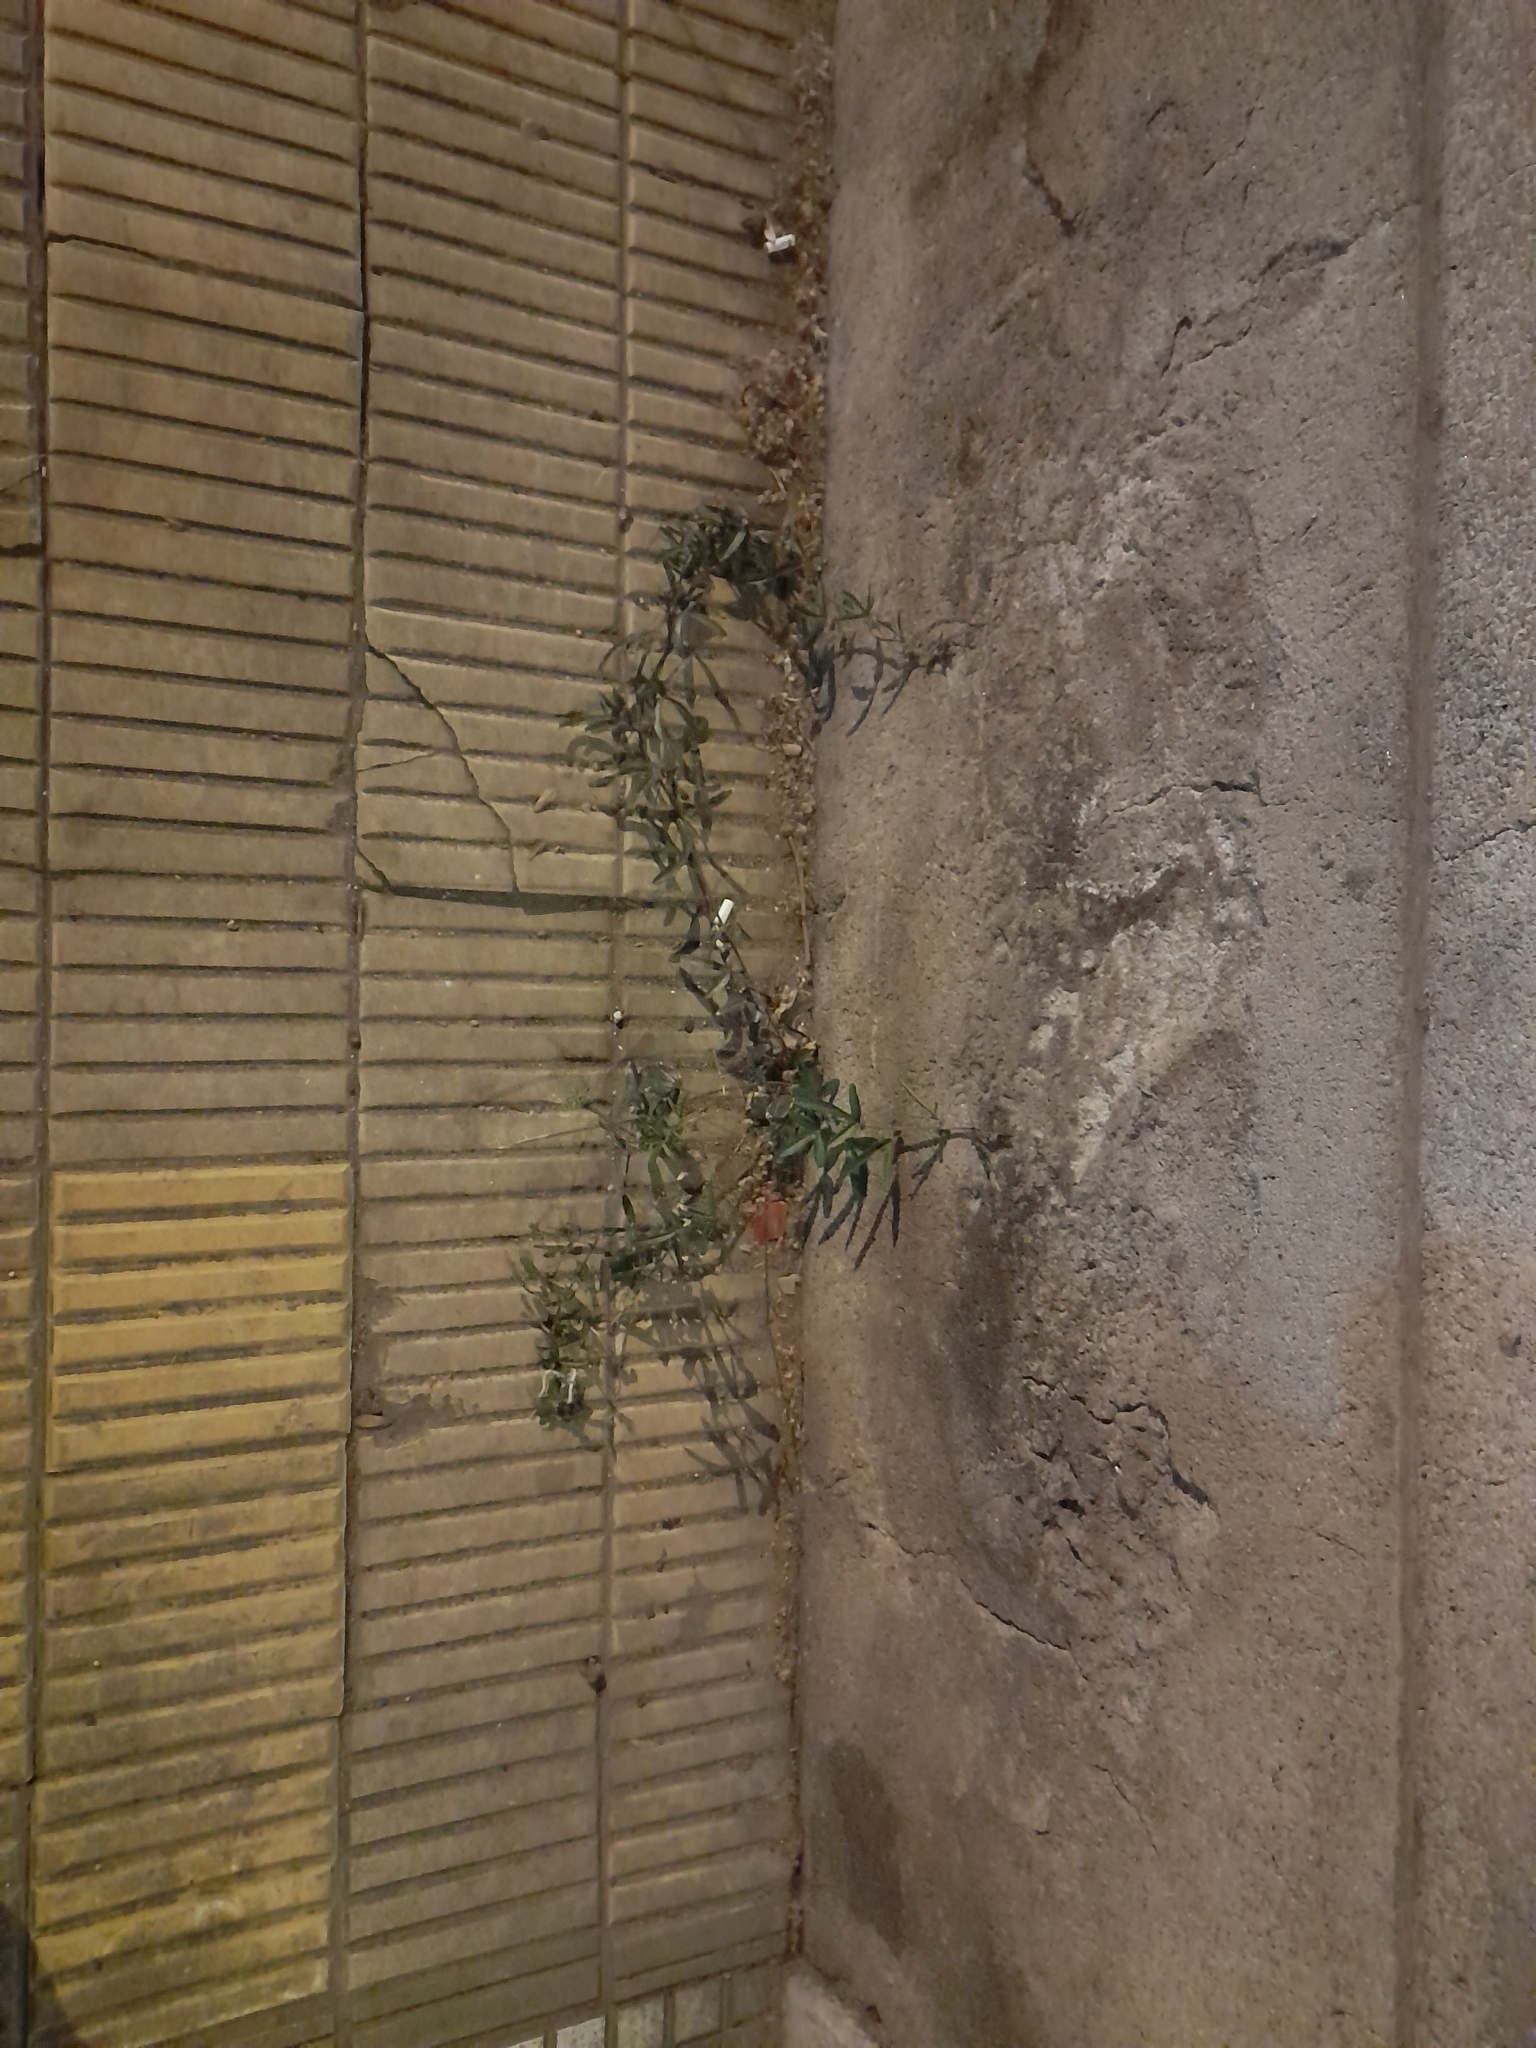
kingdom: Plantae
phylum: Tracheophyta
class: Magnoliopsida
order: Malpighiales
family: Passifloraceae
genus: Passiflora
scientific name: Passiflora caerulea
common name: Blue passionflower
